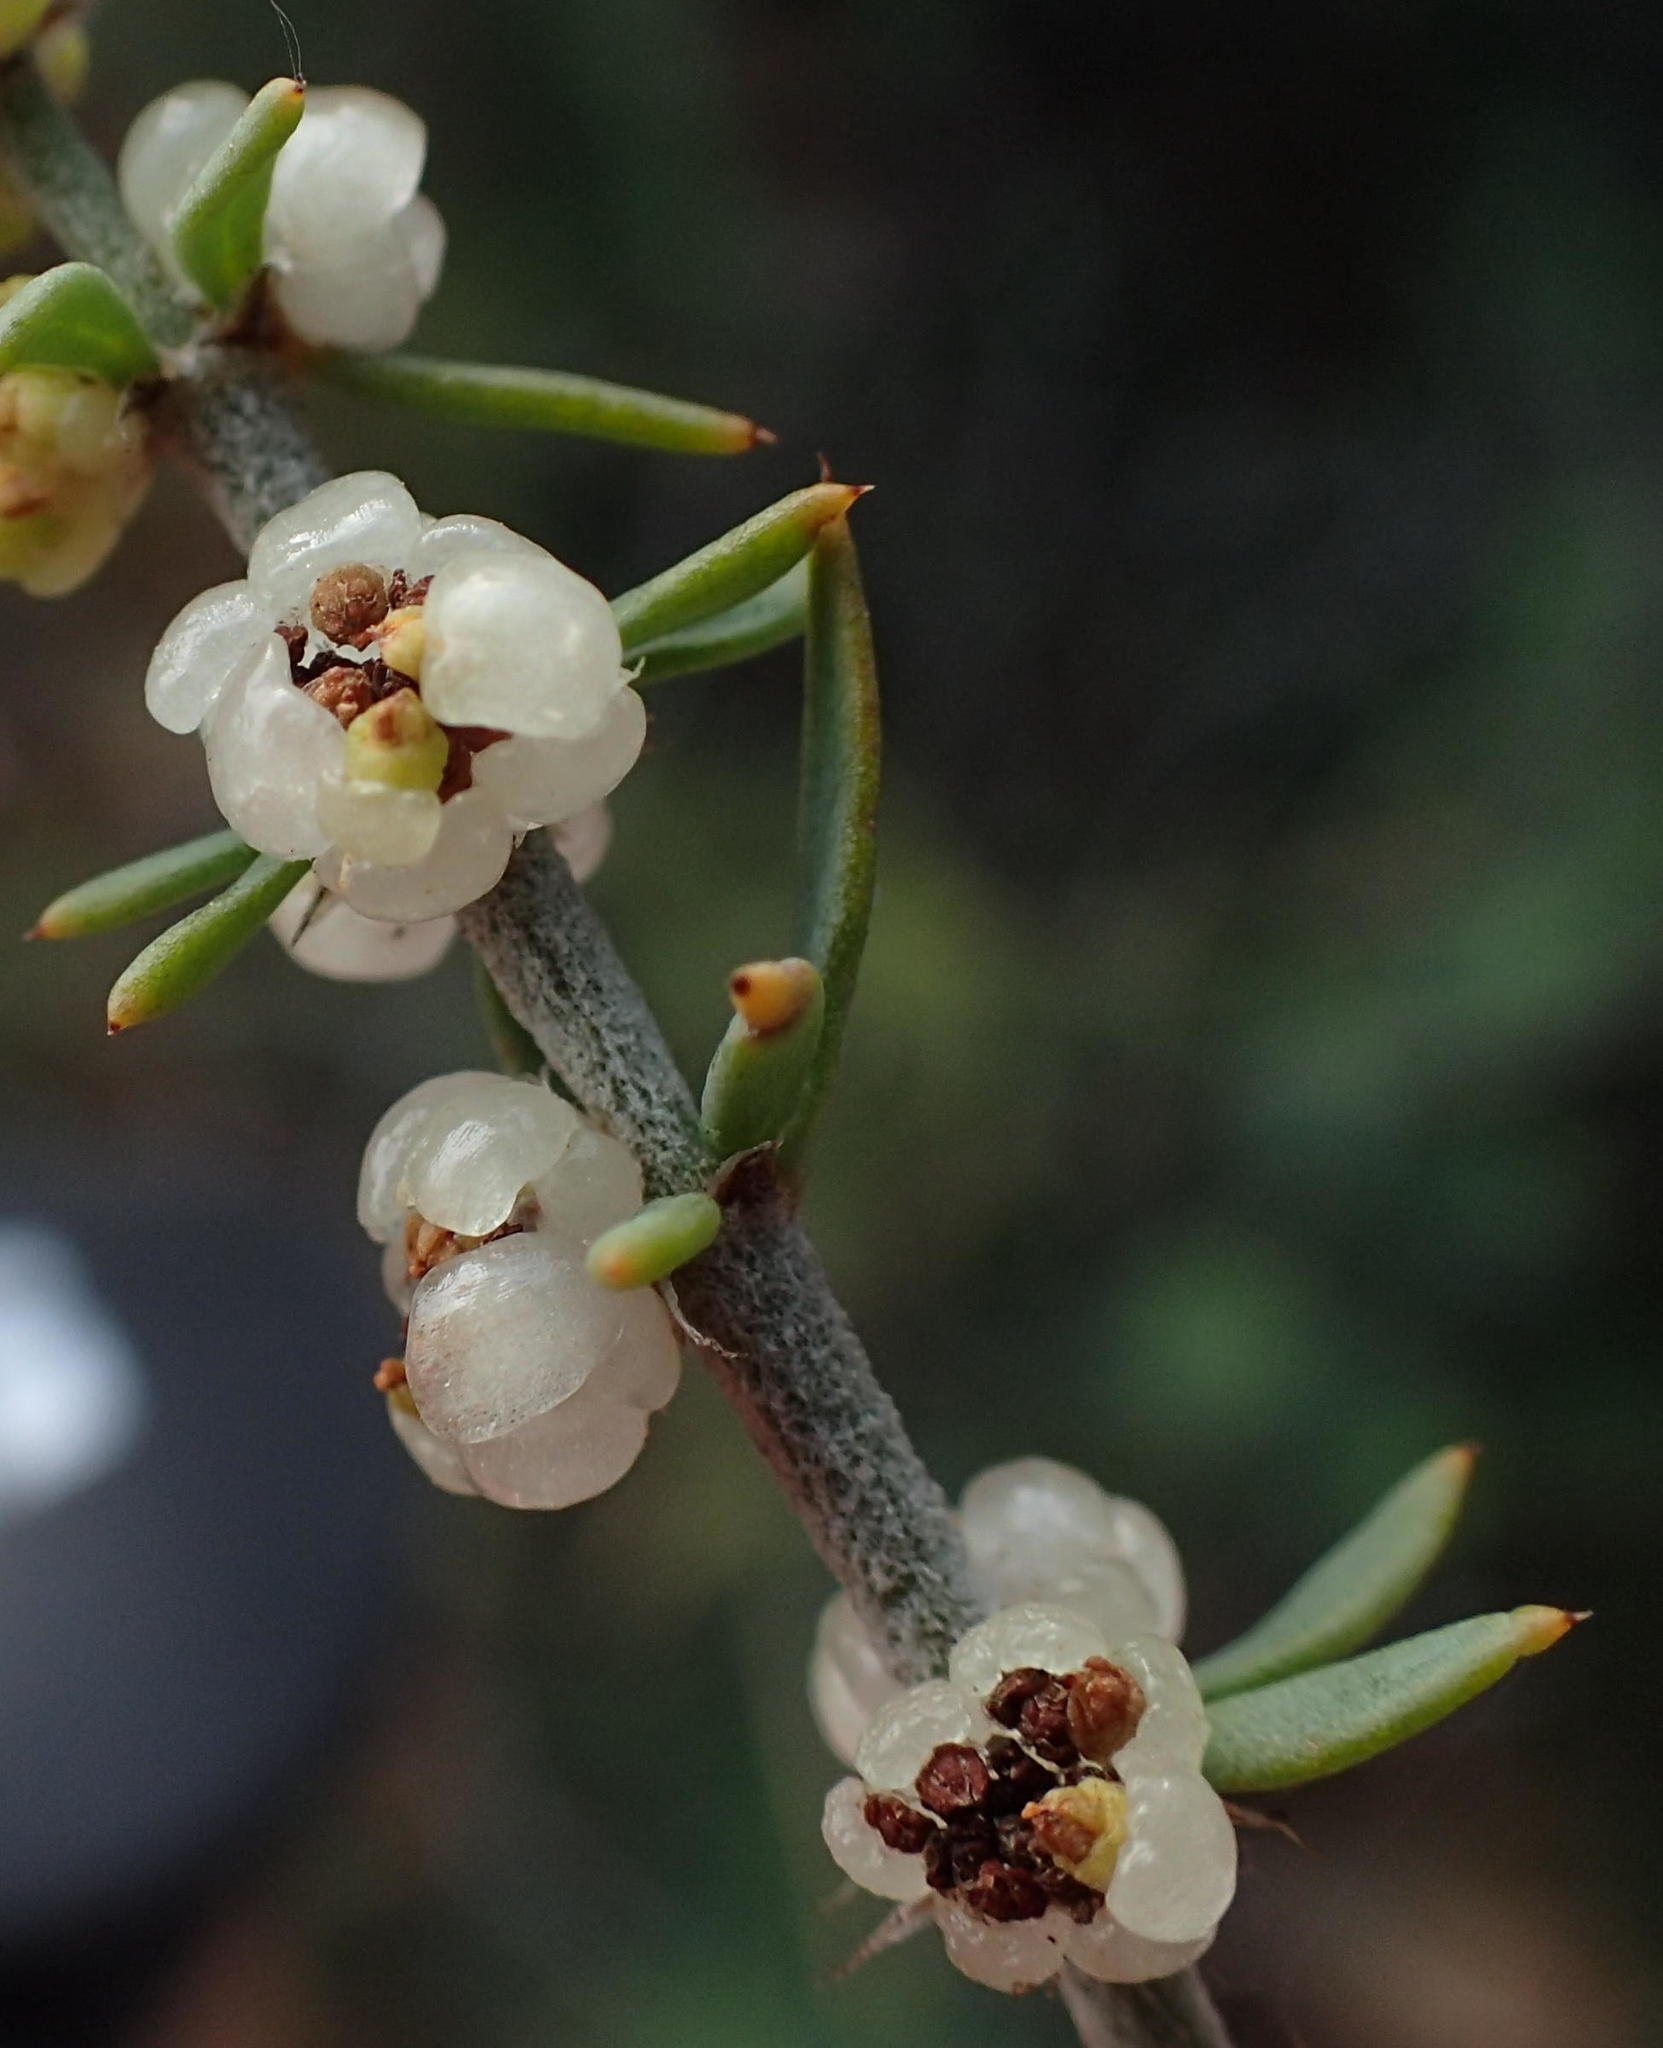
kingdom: Plantae
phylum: Tracheophyta
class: Magnoliopsida
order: Caryophyllales
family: Caryophyllaceae
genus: Pollichia
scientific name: Pollichia campestris
